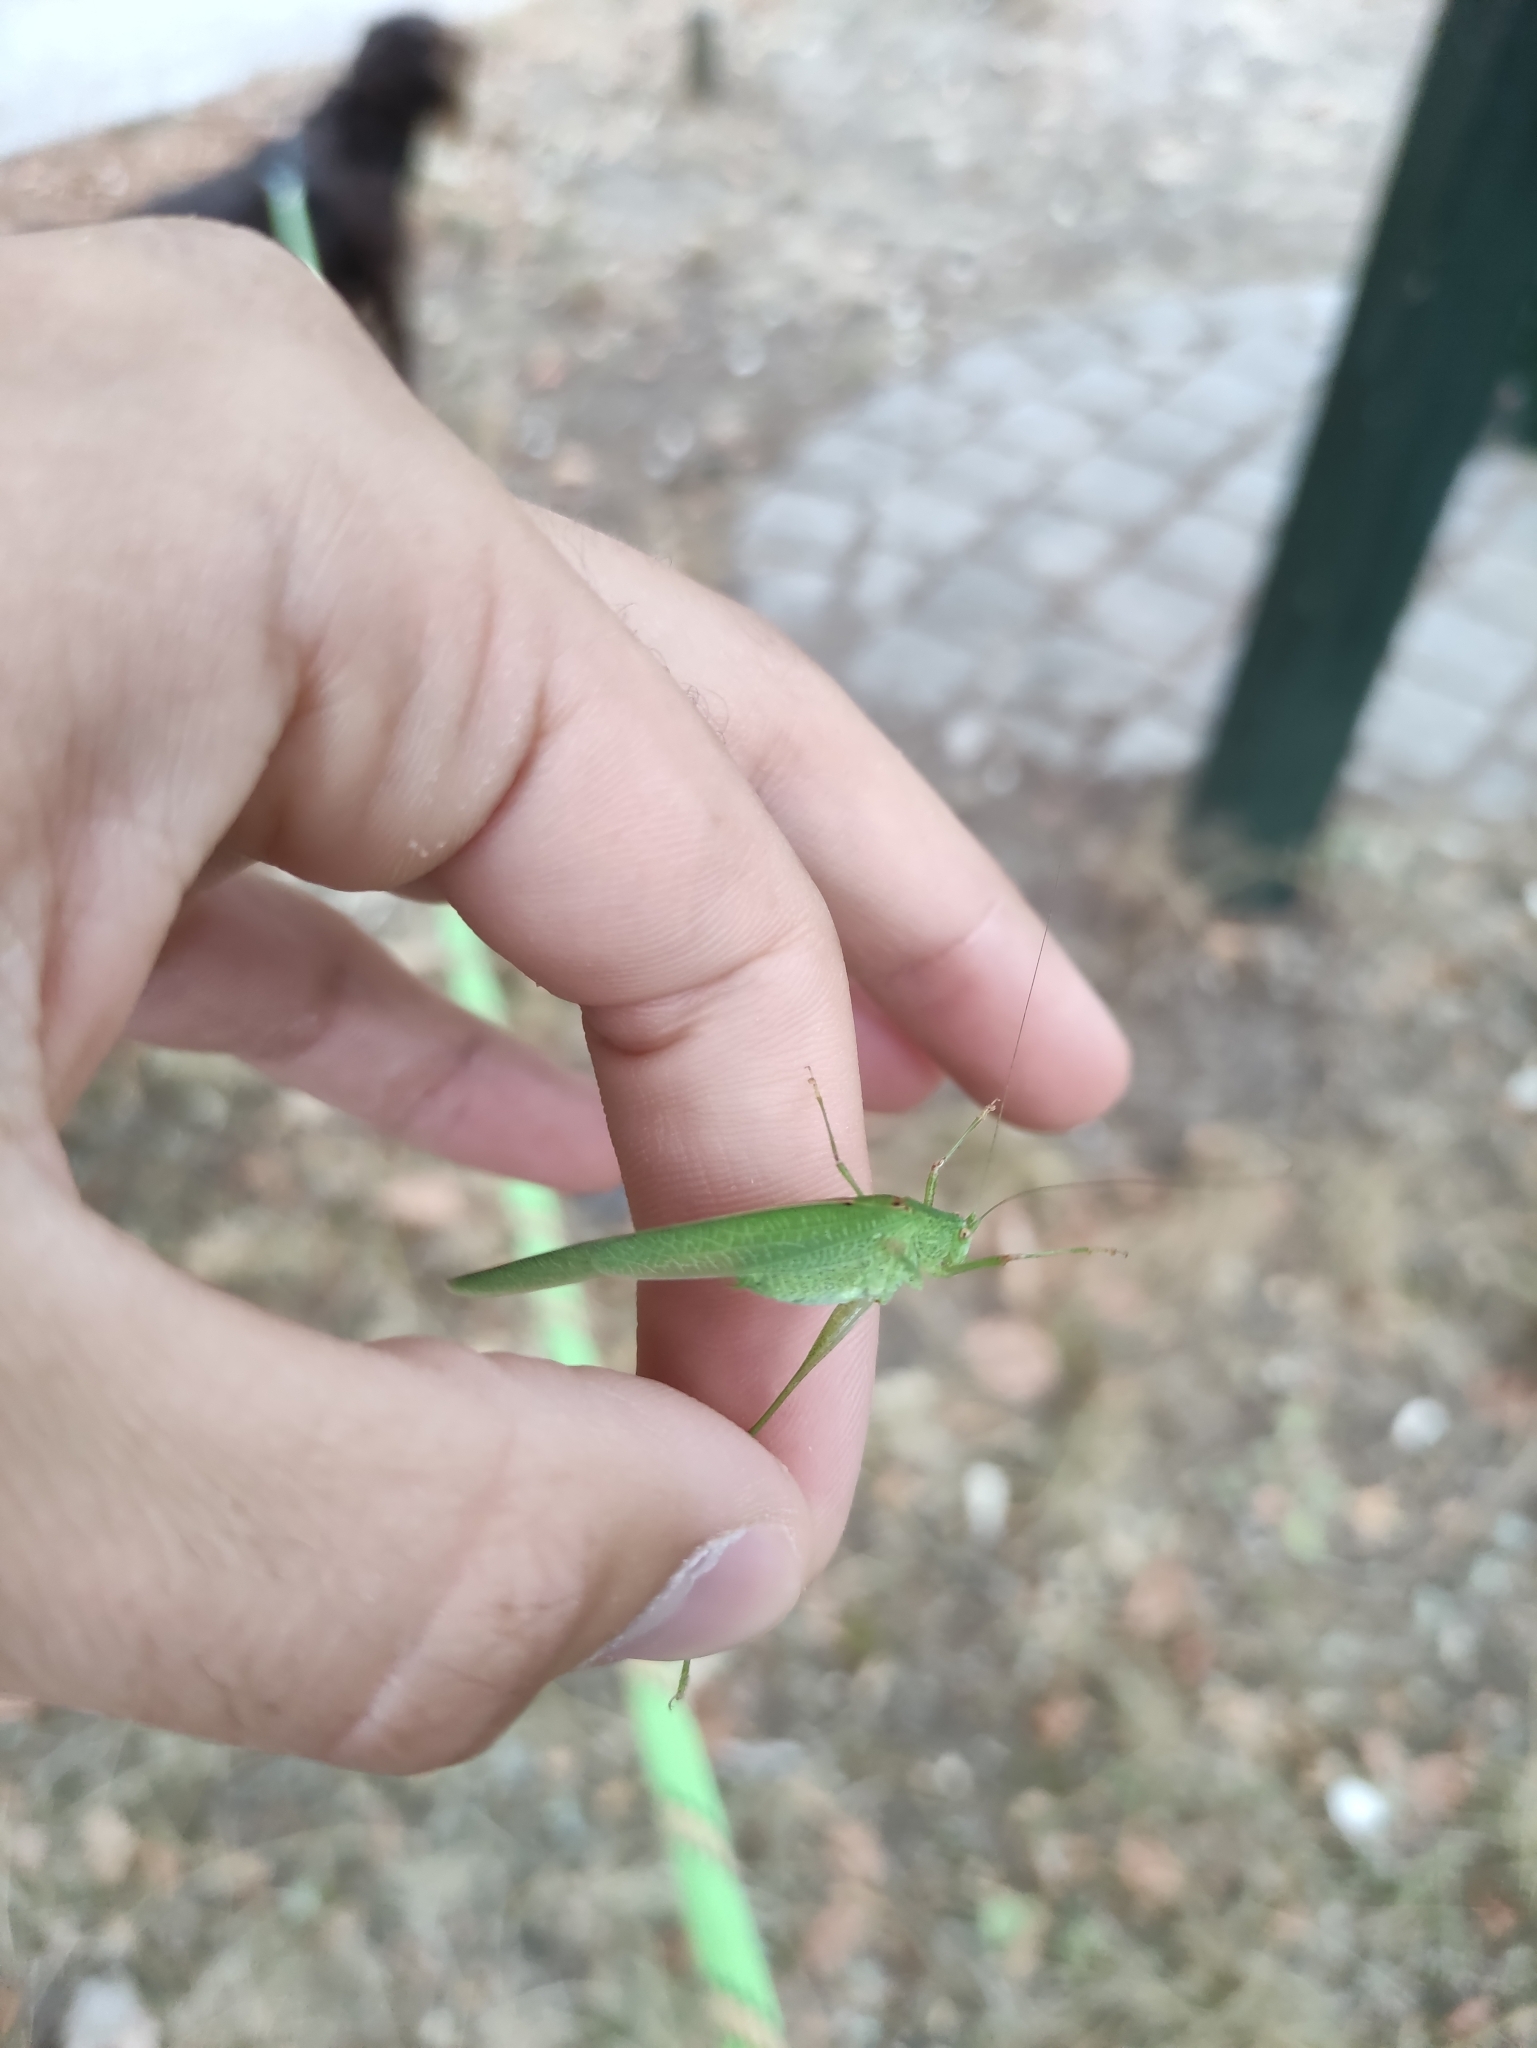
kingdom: Animalia
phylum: Arthropoda
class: Insecta
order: Orthoptera
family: Tettigoniidae
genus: Phaneroptera
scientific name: Phaneroptera nana
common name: Southern sickle bush-cricket
